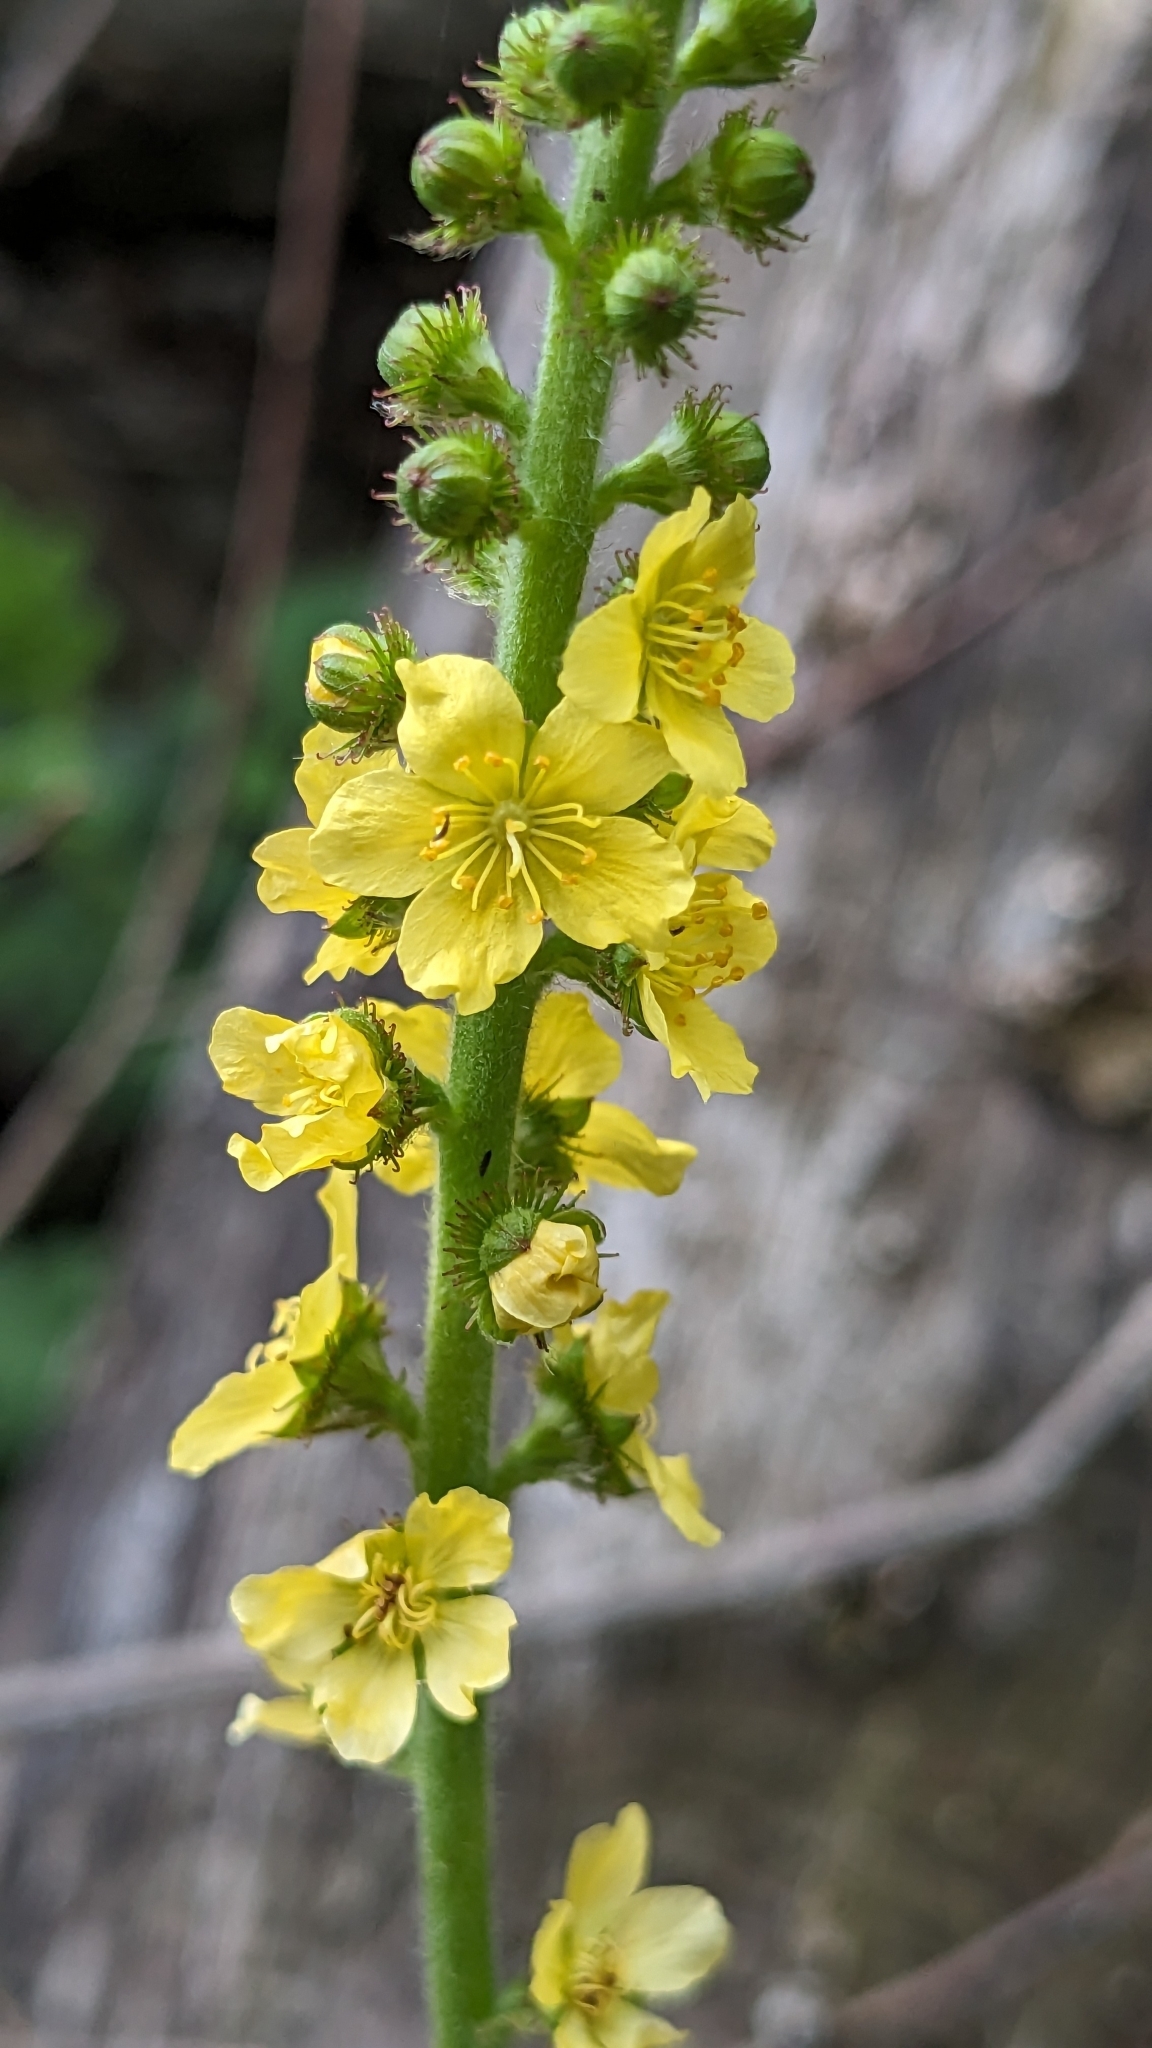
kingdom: Plantae
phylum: Tracheophyta
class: Magnoliopsida
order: Rosales
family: Rosaceae
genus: Agrimonia
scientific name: Agrimonia eupatoria
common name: Agrimony
